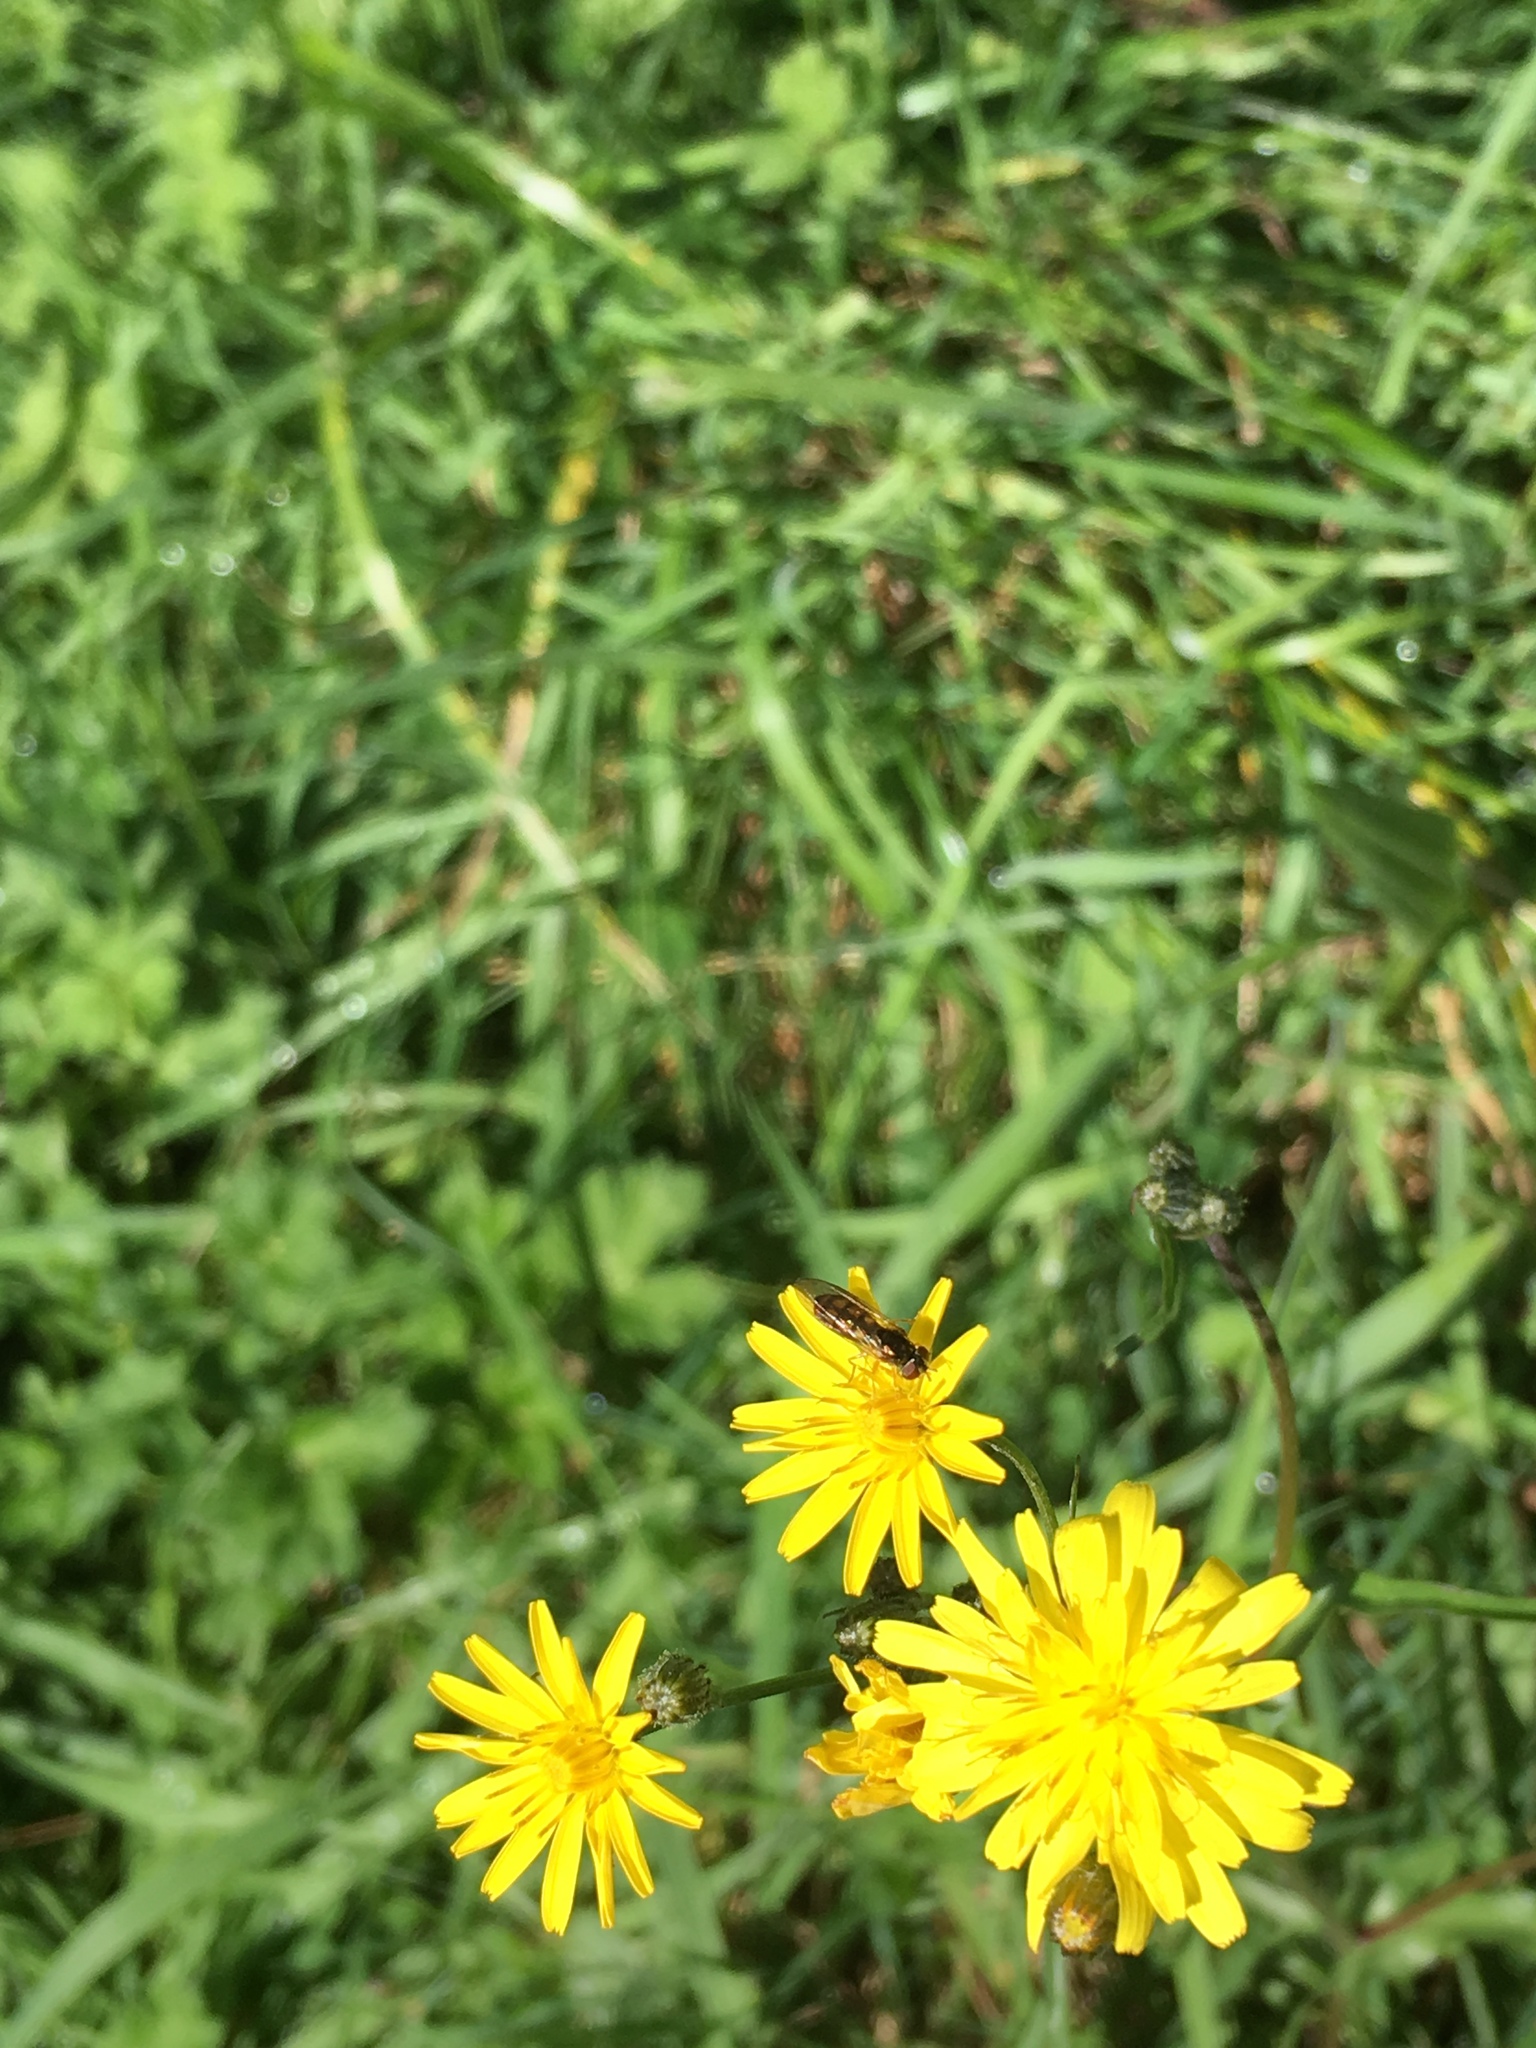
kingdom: Animalia
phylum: Arthropoda
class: Insecta
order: Diptera
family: Syrphidae
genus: Melanostoma
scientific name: Melanostoma fasciatum
